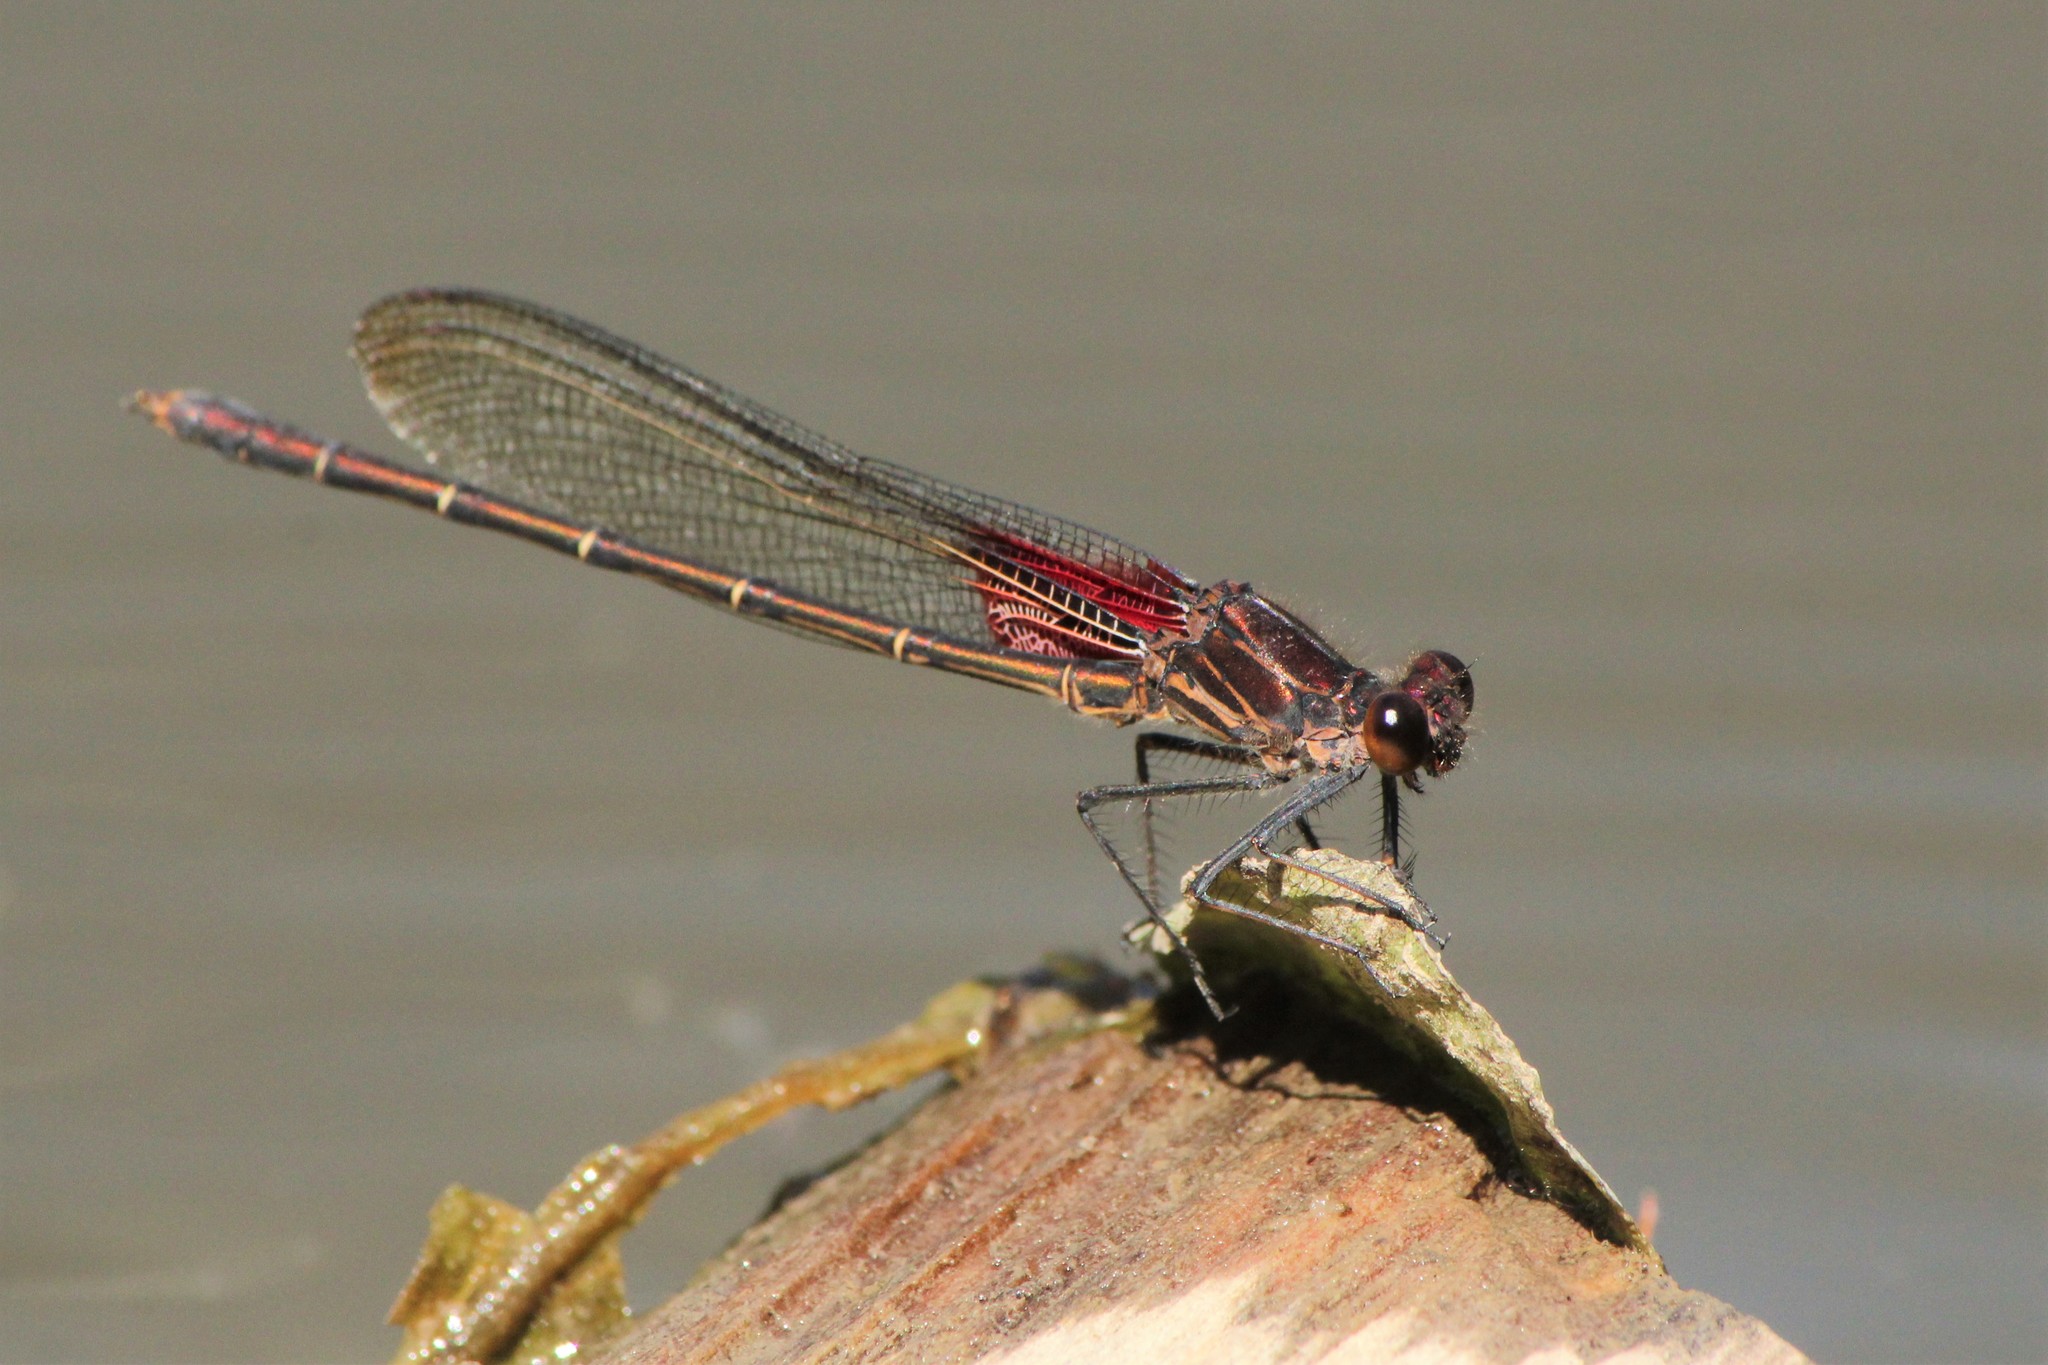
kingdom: Animalia
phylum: Arthropoda
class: Insecta
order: Odonata
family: Calopterygidae
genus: Hetaerina
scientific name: Hetaerina americana
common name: American rubyspot
